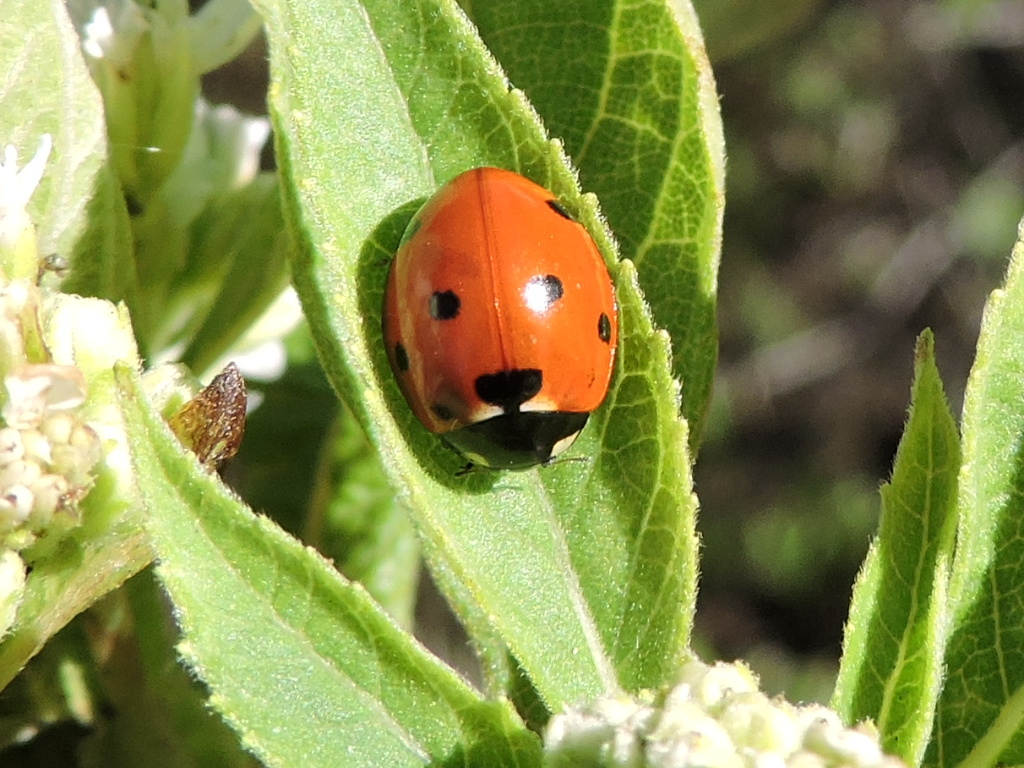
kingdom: Animalia
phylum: Arthropoda
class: Insecta
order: Coleoptera
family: Coccinellidae
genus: Coccinella
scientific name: Coccinella septempunctata
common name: Sevenspotted lady beetle
